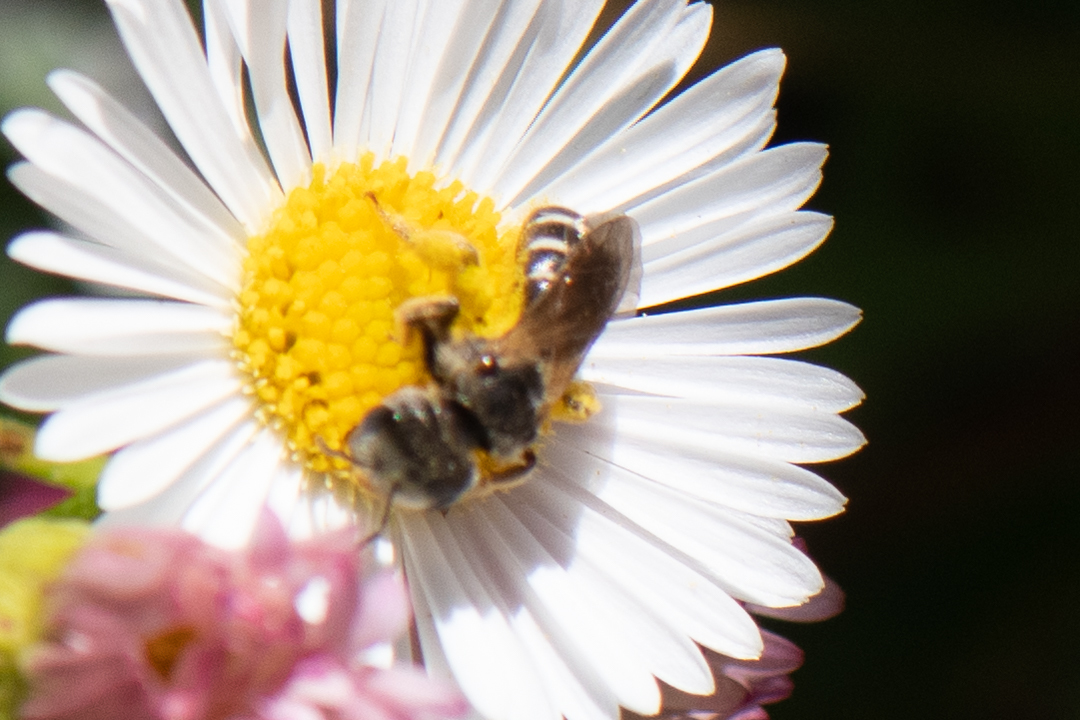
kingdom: Animalia
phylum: Arthropoda
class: Insecta
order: Hymenoptera
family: Halictidae
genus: Halictus
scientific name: Halictus ligatus
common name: Ligated furrow bee
